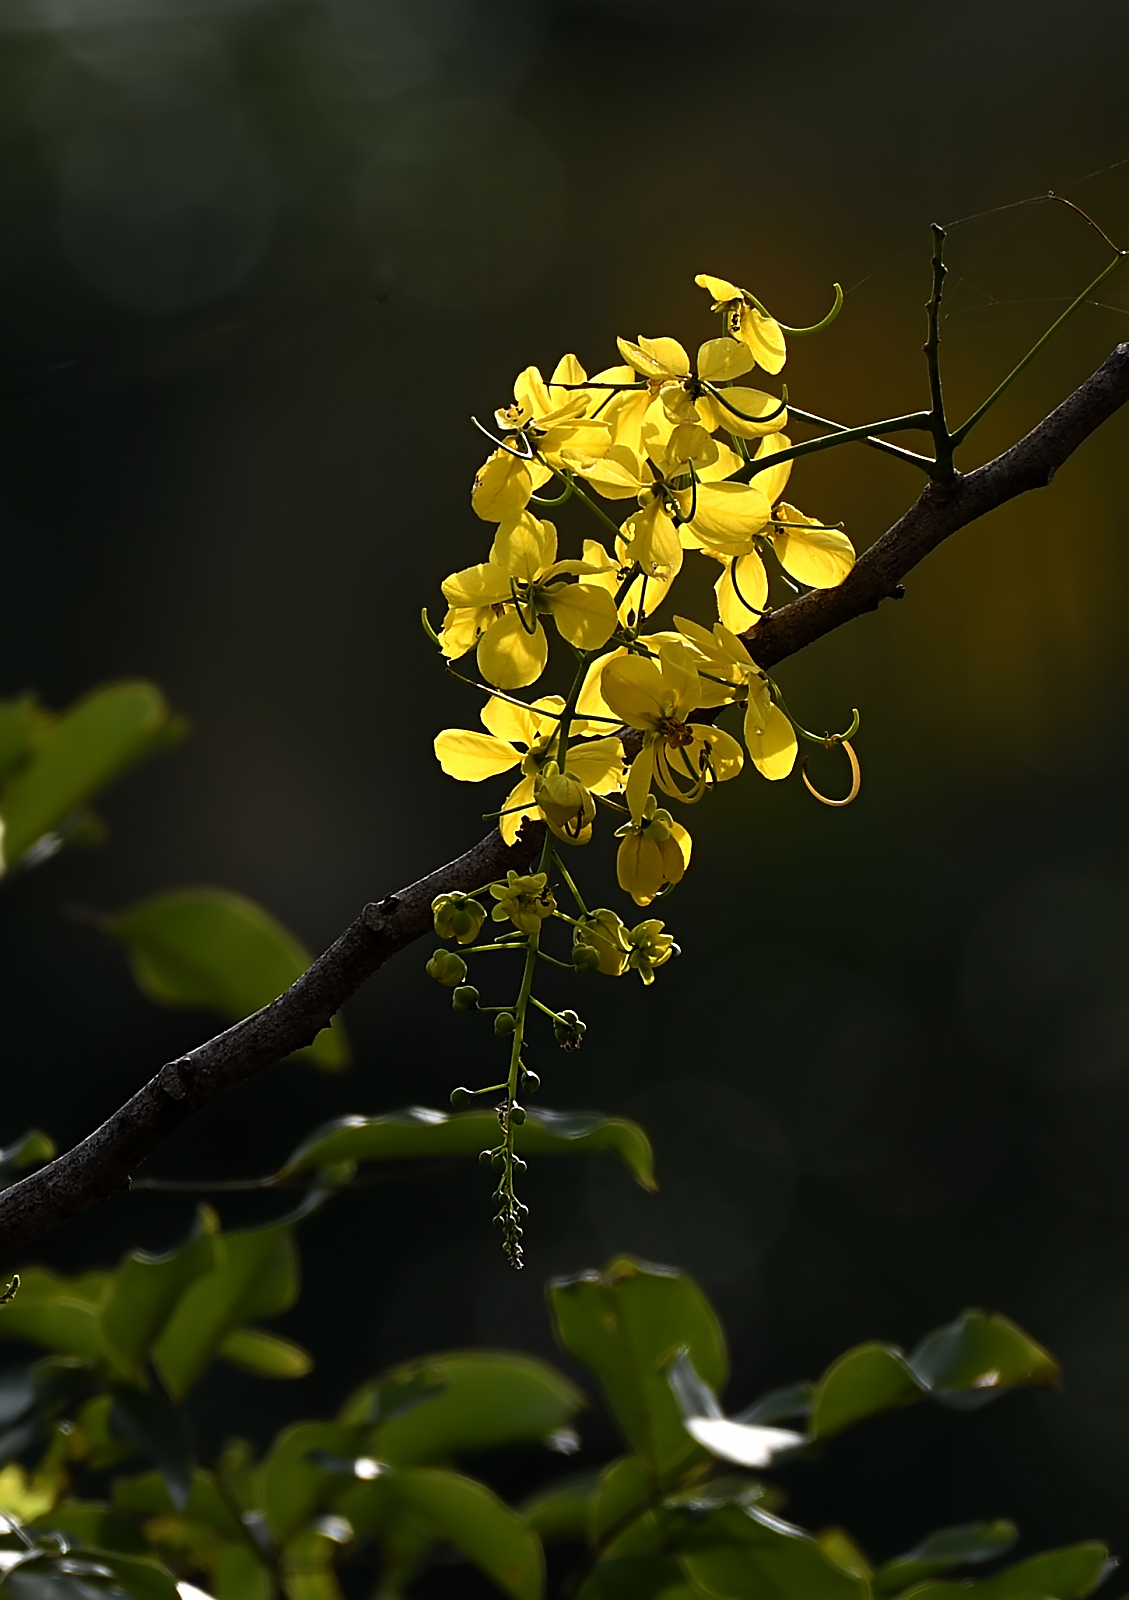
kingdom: Plantae
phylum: Tracheophyta
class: Magnoliopsida
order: Fabales
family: Fabaceae
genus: Cassia
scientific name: Cassia fistula
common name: Golden shower
